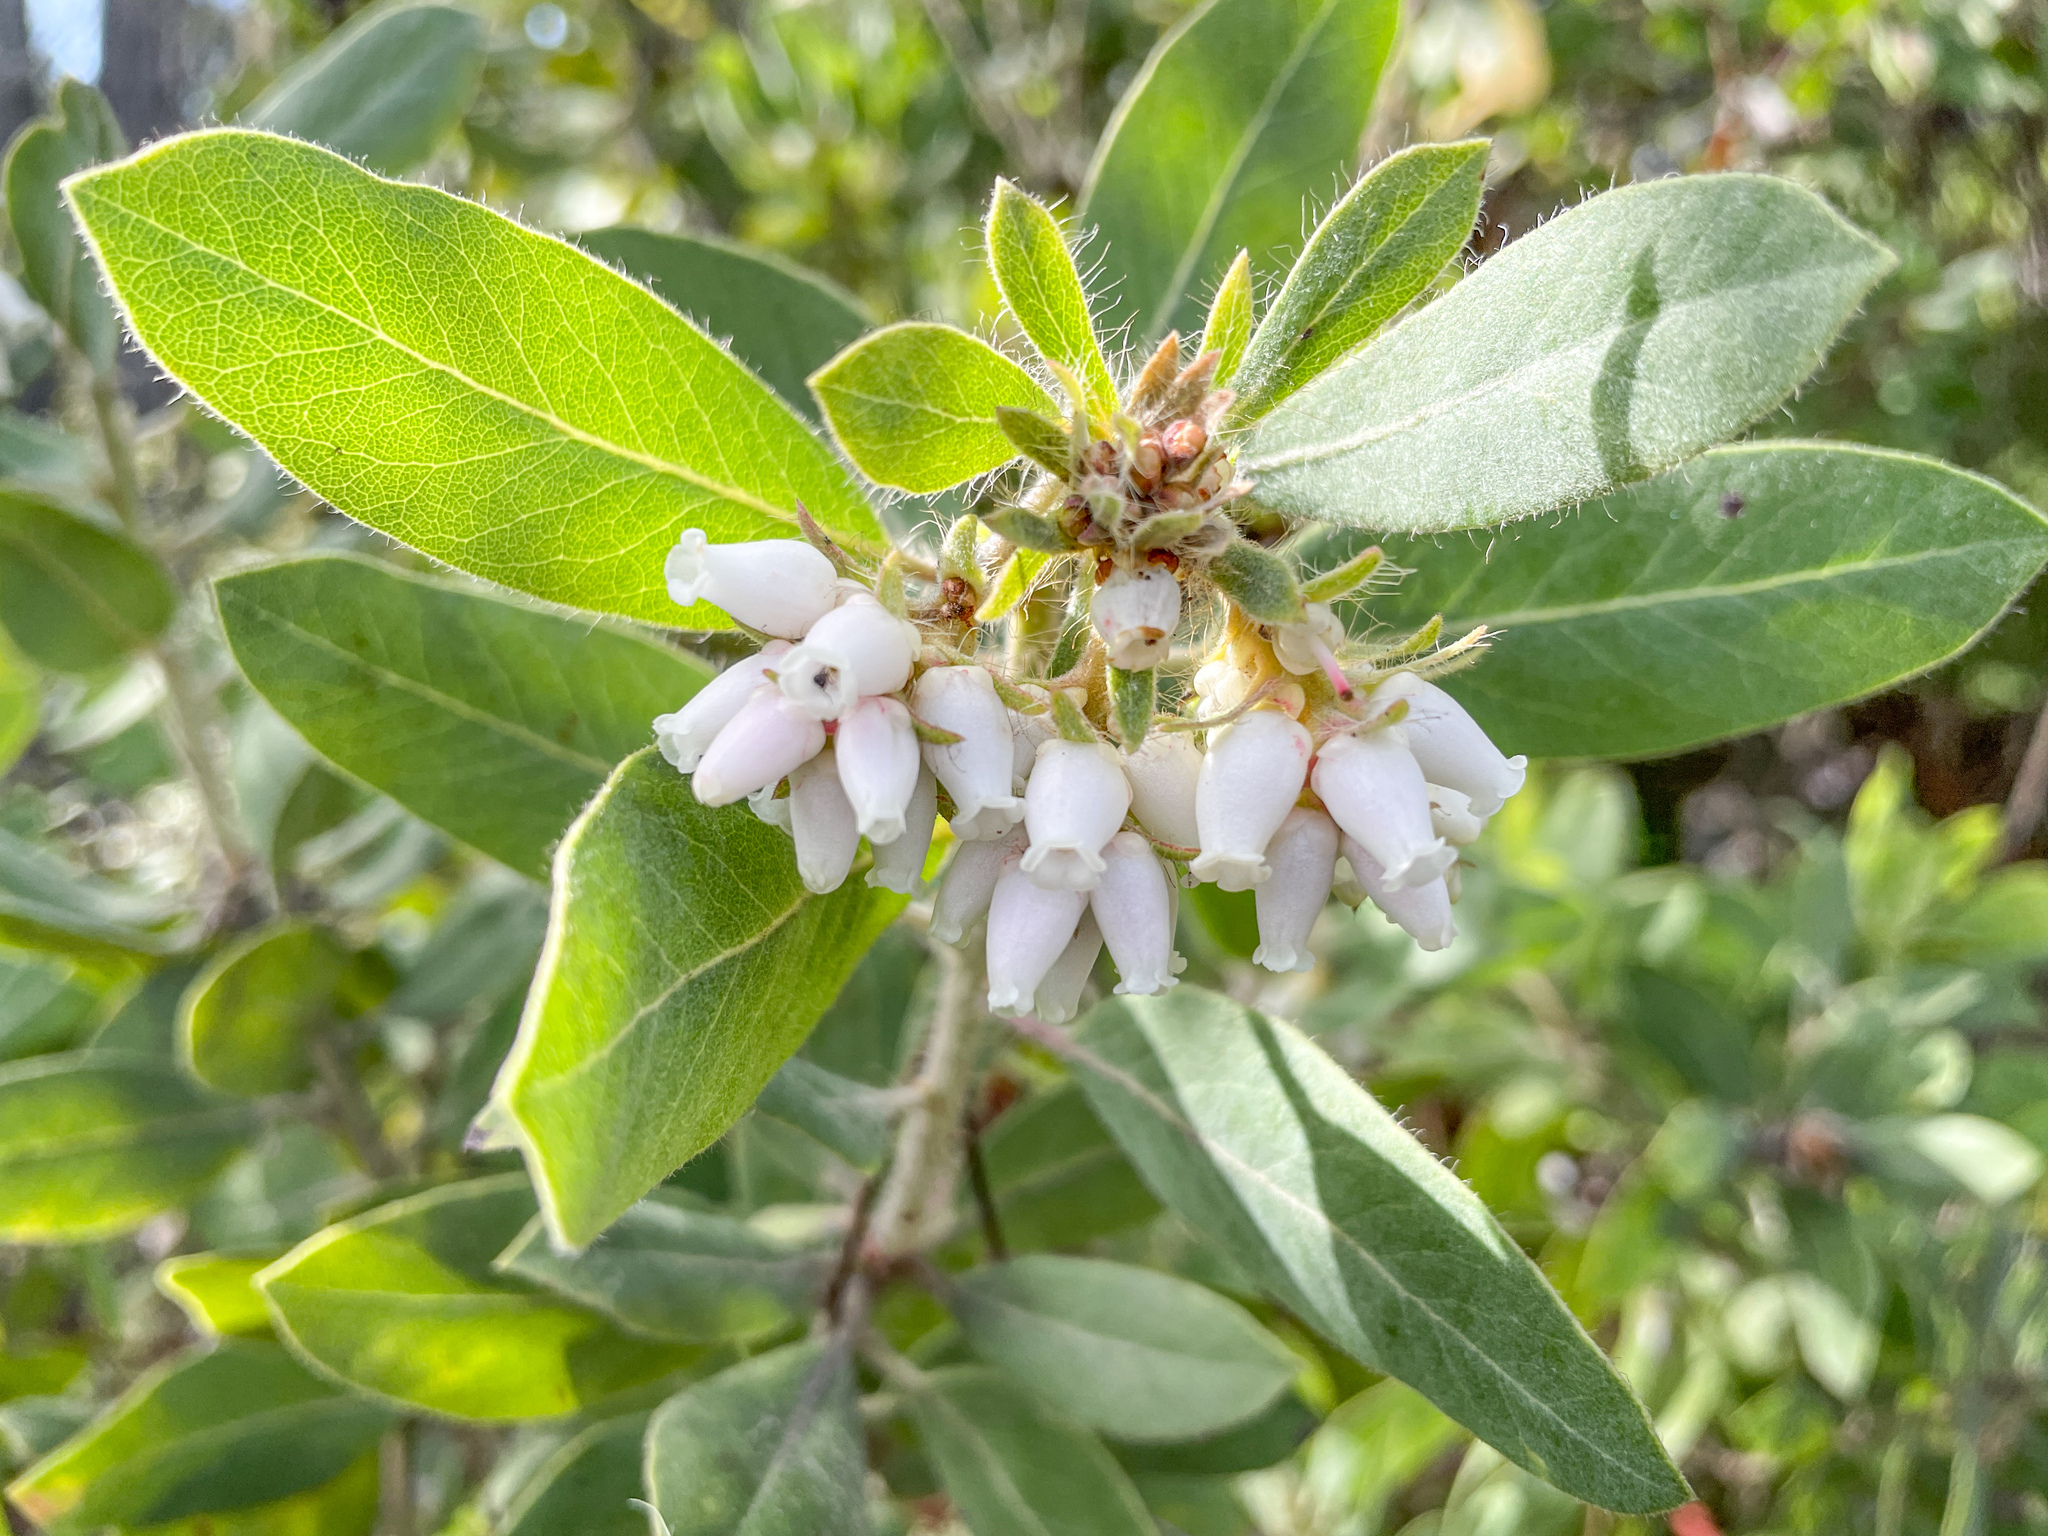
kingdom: Plantae
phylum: Tracheophyta
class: Magnoliopsida
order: Ericales
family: Ericaceae
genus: Arctostaphylos
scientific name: Arctostaphylos columbiana
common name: Bristly bearberry
